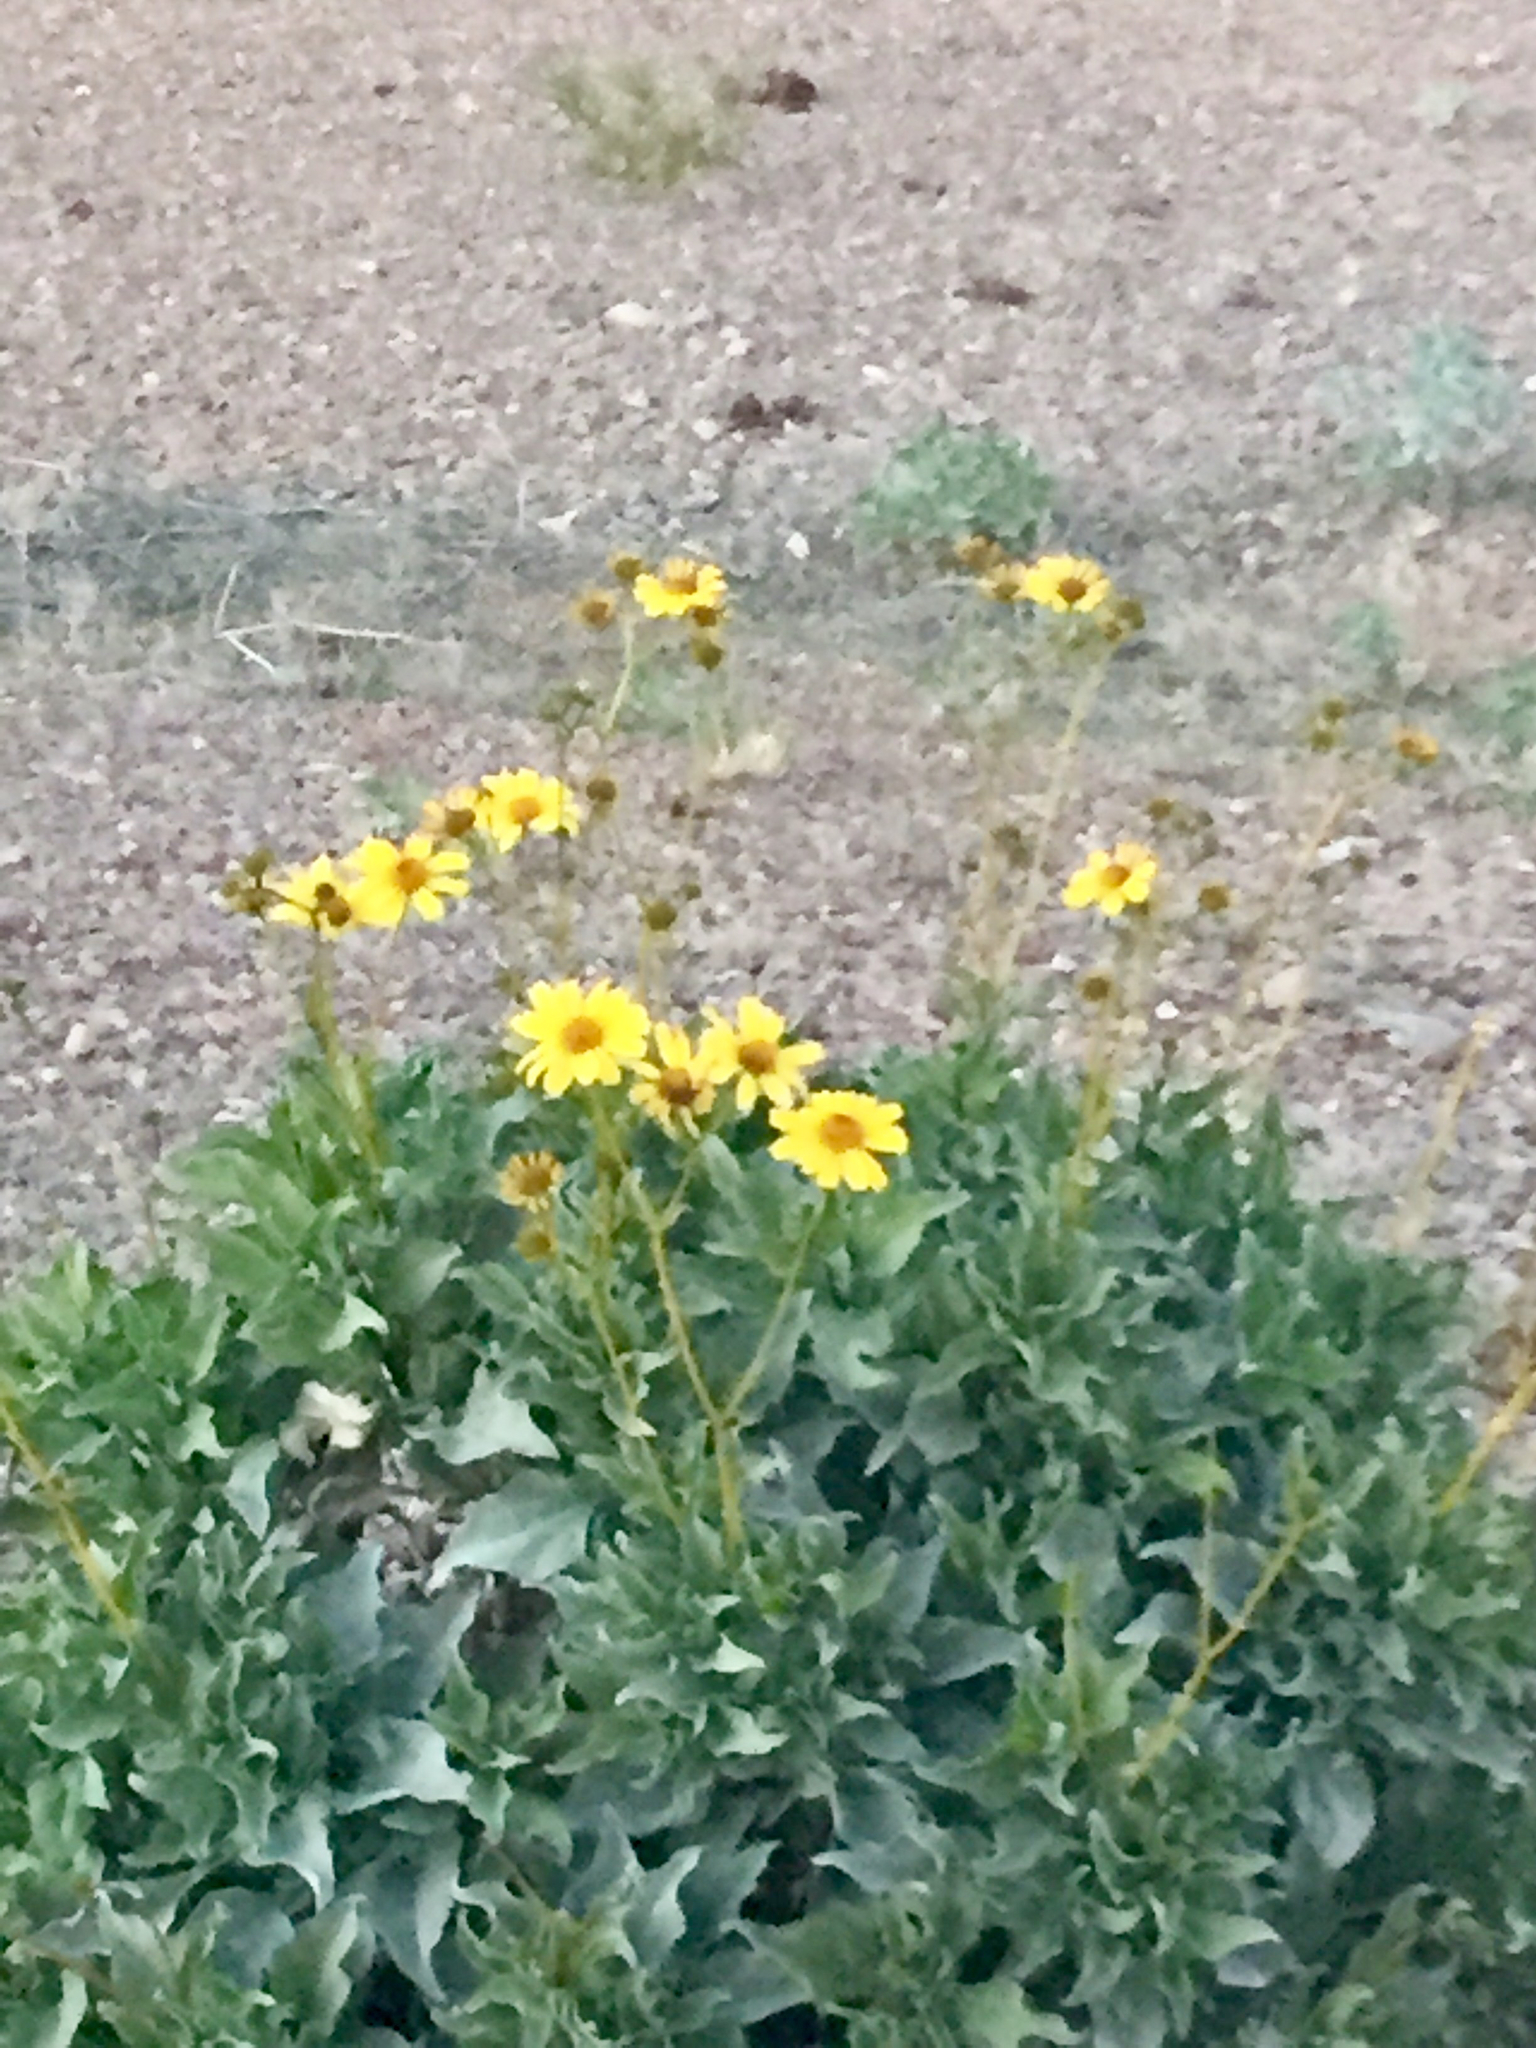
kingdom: Plantae
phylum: Tracheophyta
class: Magnoliopsida
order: Asterales
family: Asteraceae
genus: Encelia
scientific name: Encelia farinosa
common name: Brittlebush
